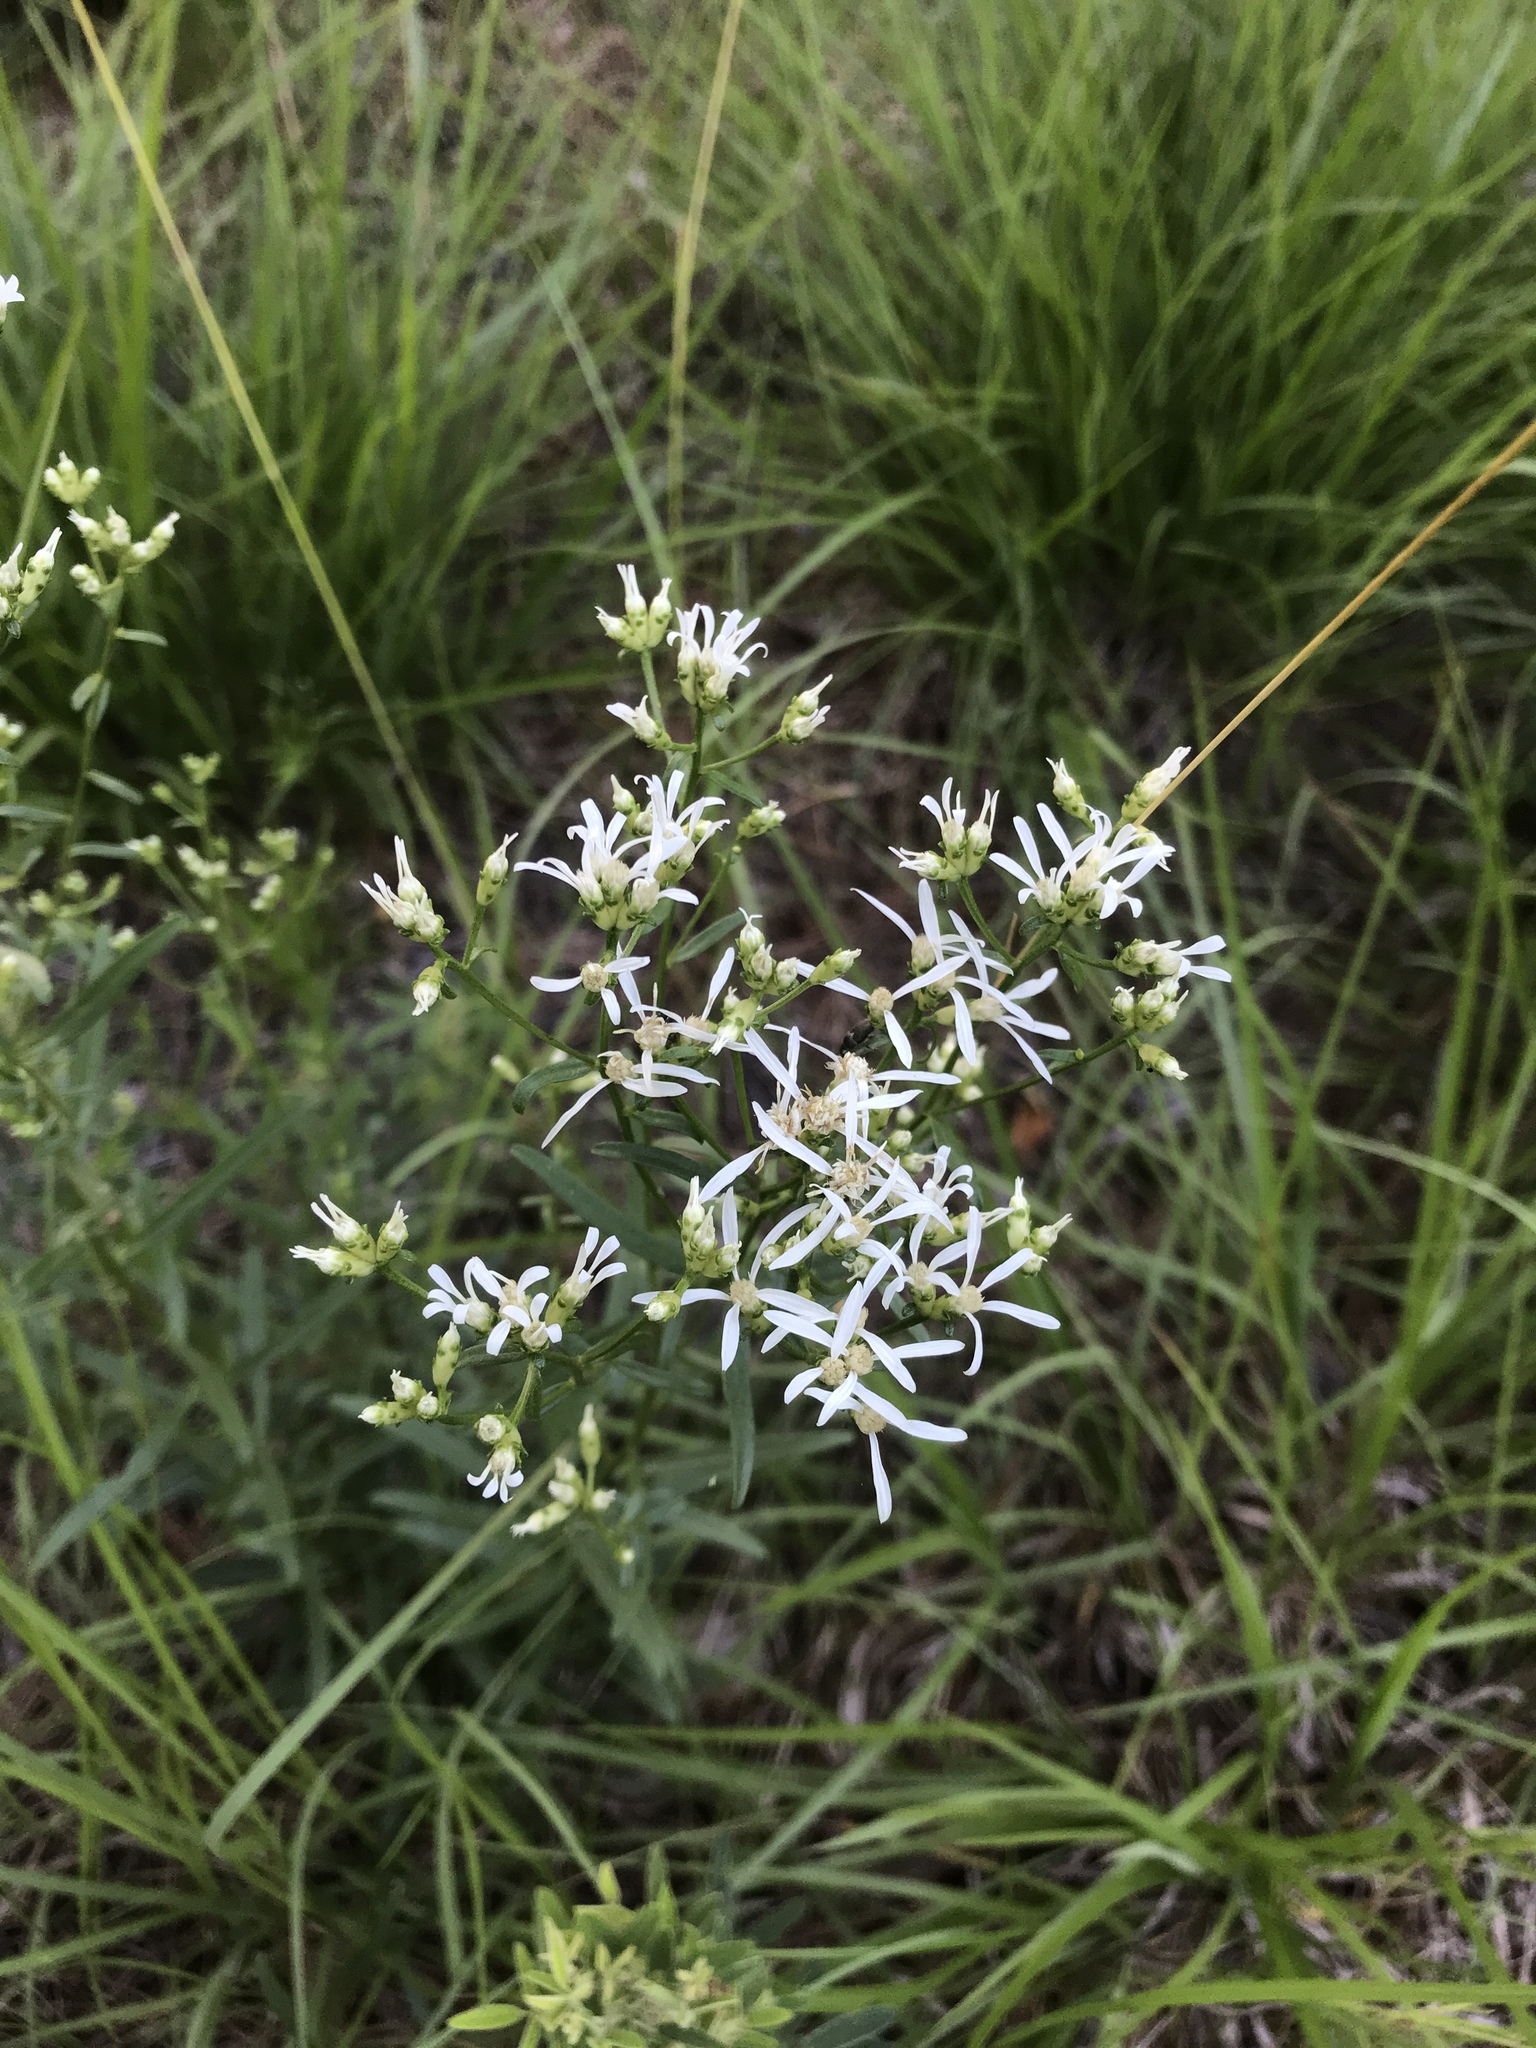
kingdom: Plantae
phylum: Tracheophyta
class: Magnoliopsida
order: Asterales
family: Asteraceae
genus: Sericocarpus
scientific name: Sericocarpus linifolius
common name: Narrow-leaf aster
